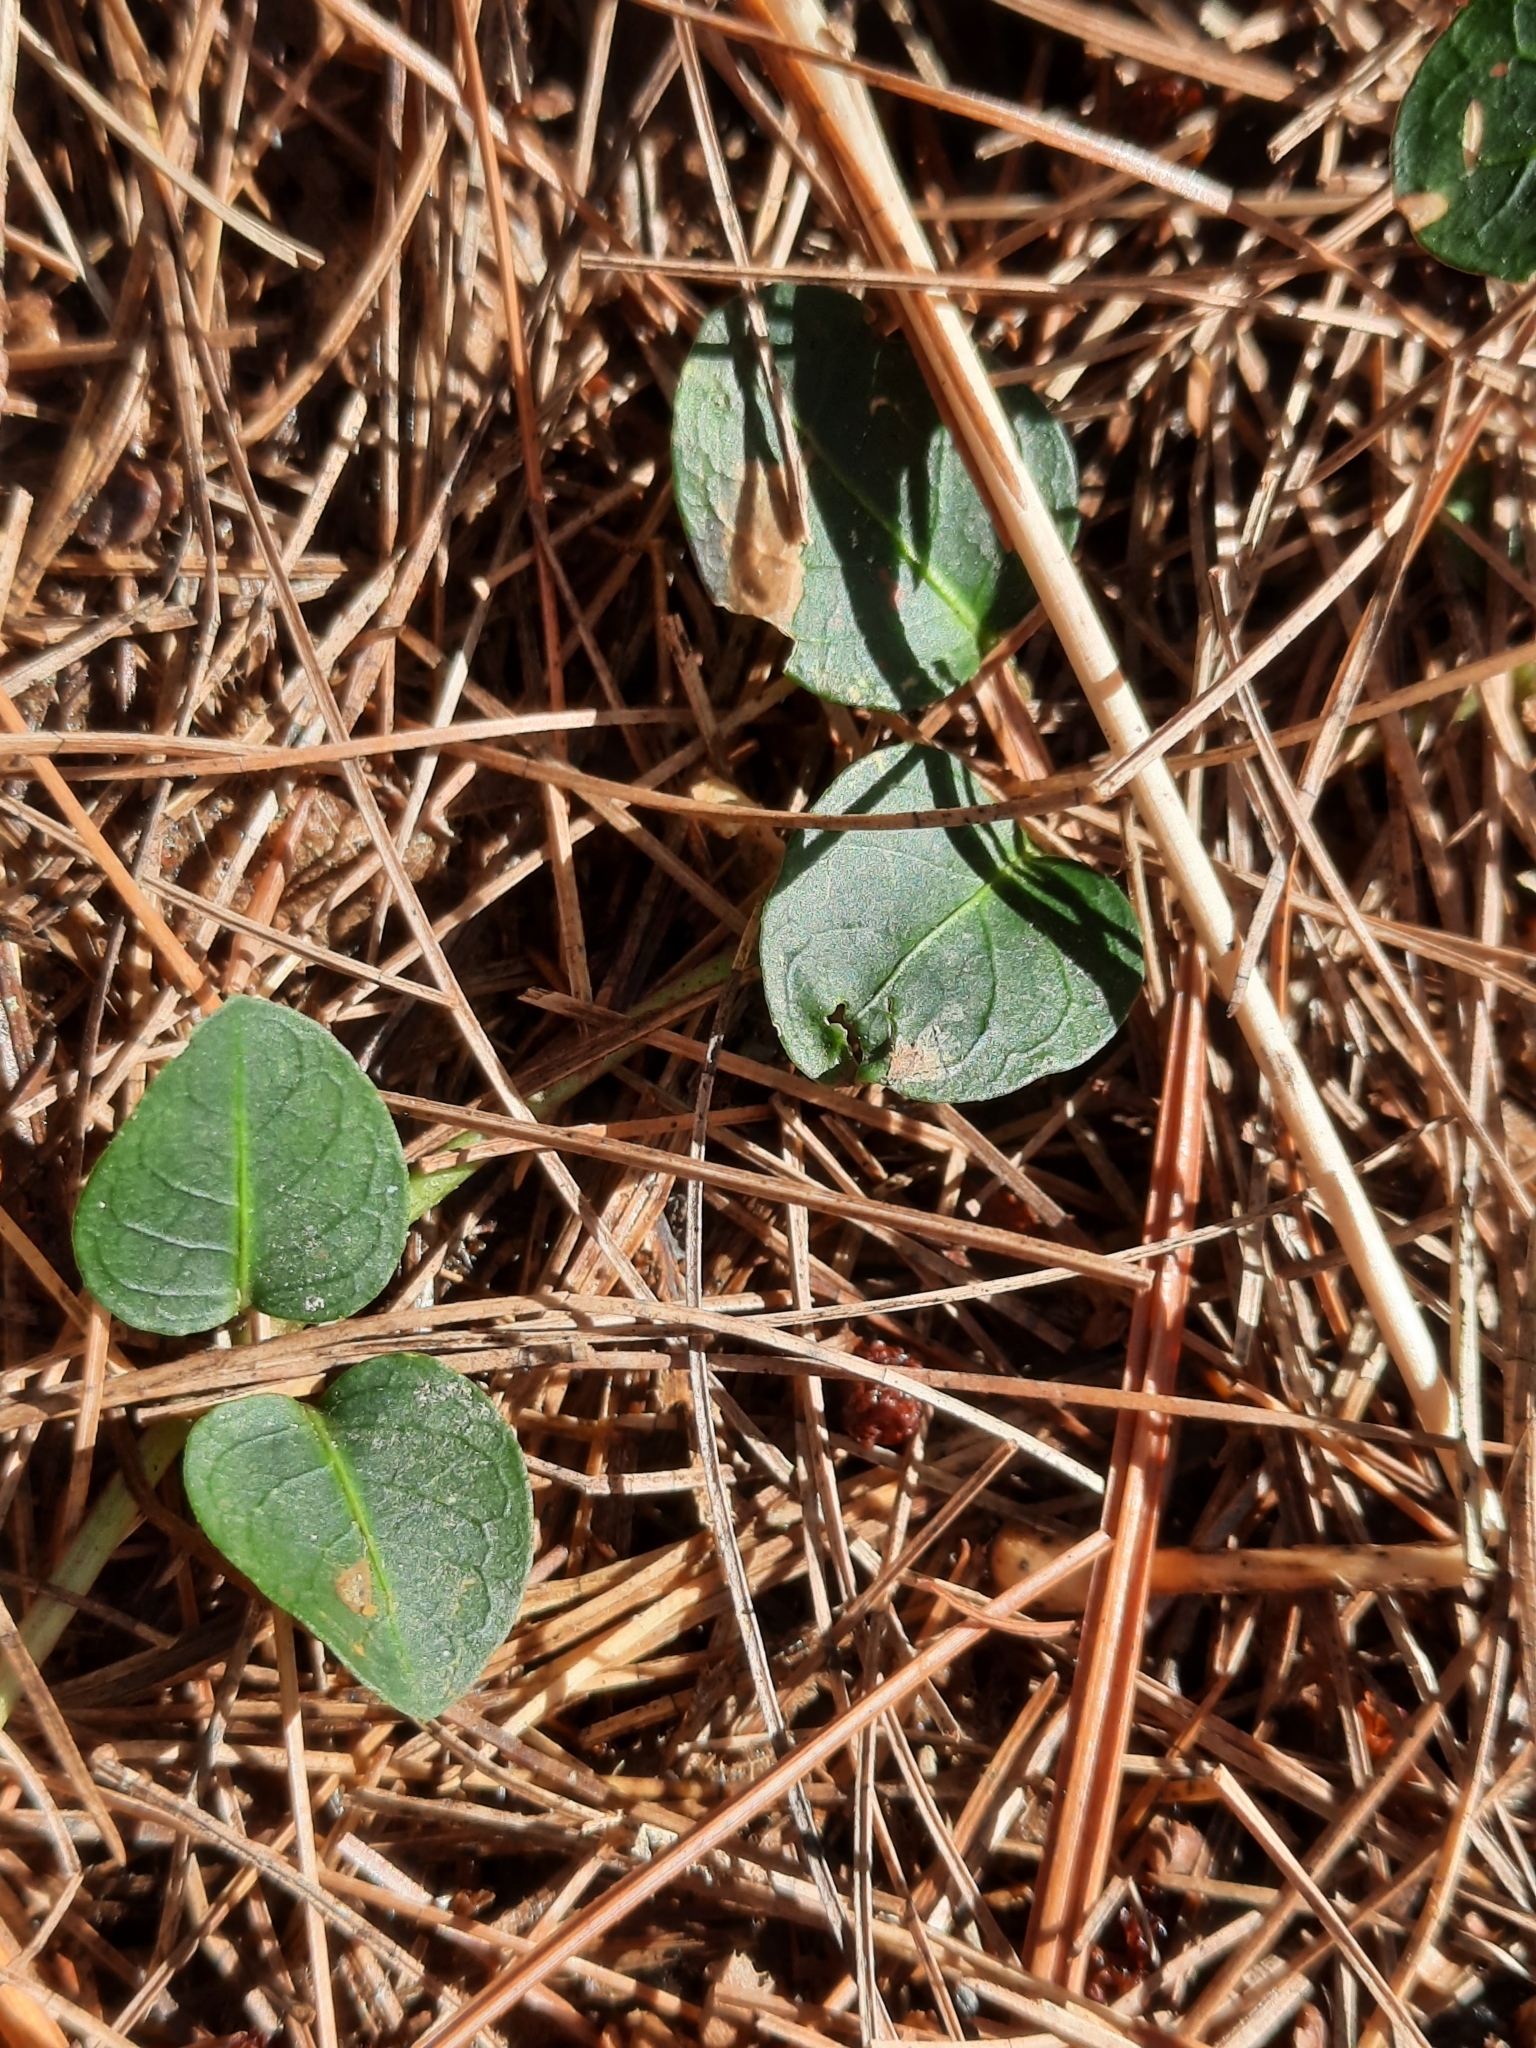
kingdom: Plantae
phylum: Tracheophyta
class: Magnoliopsida
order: Gentianales
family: Rubiaceae
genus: Mitchella
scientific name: Mitchella repens
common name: Partridge-berry
